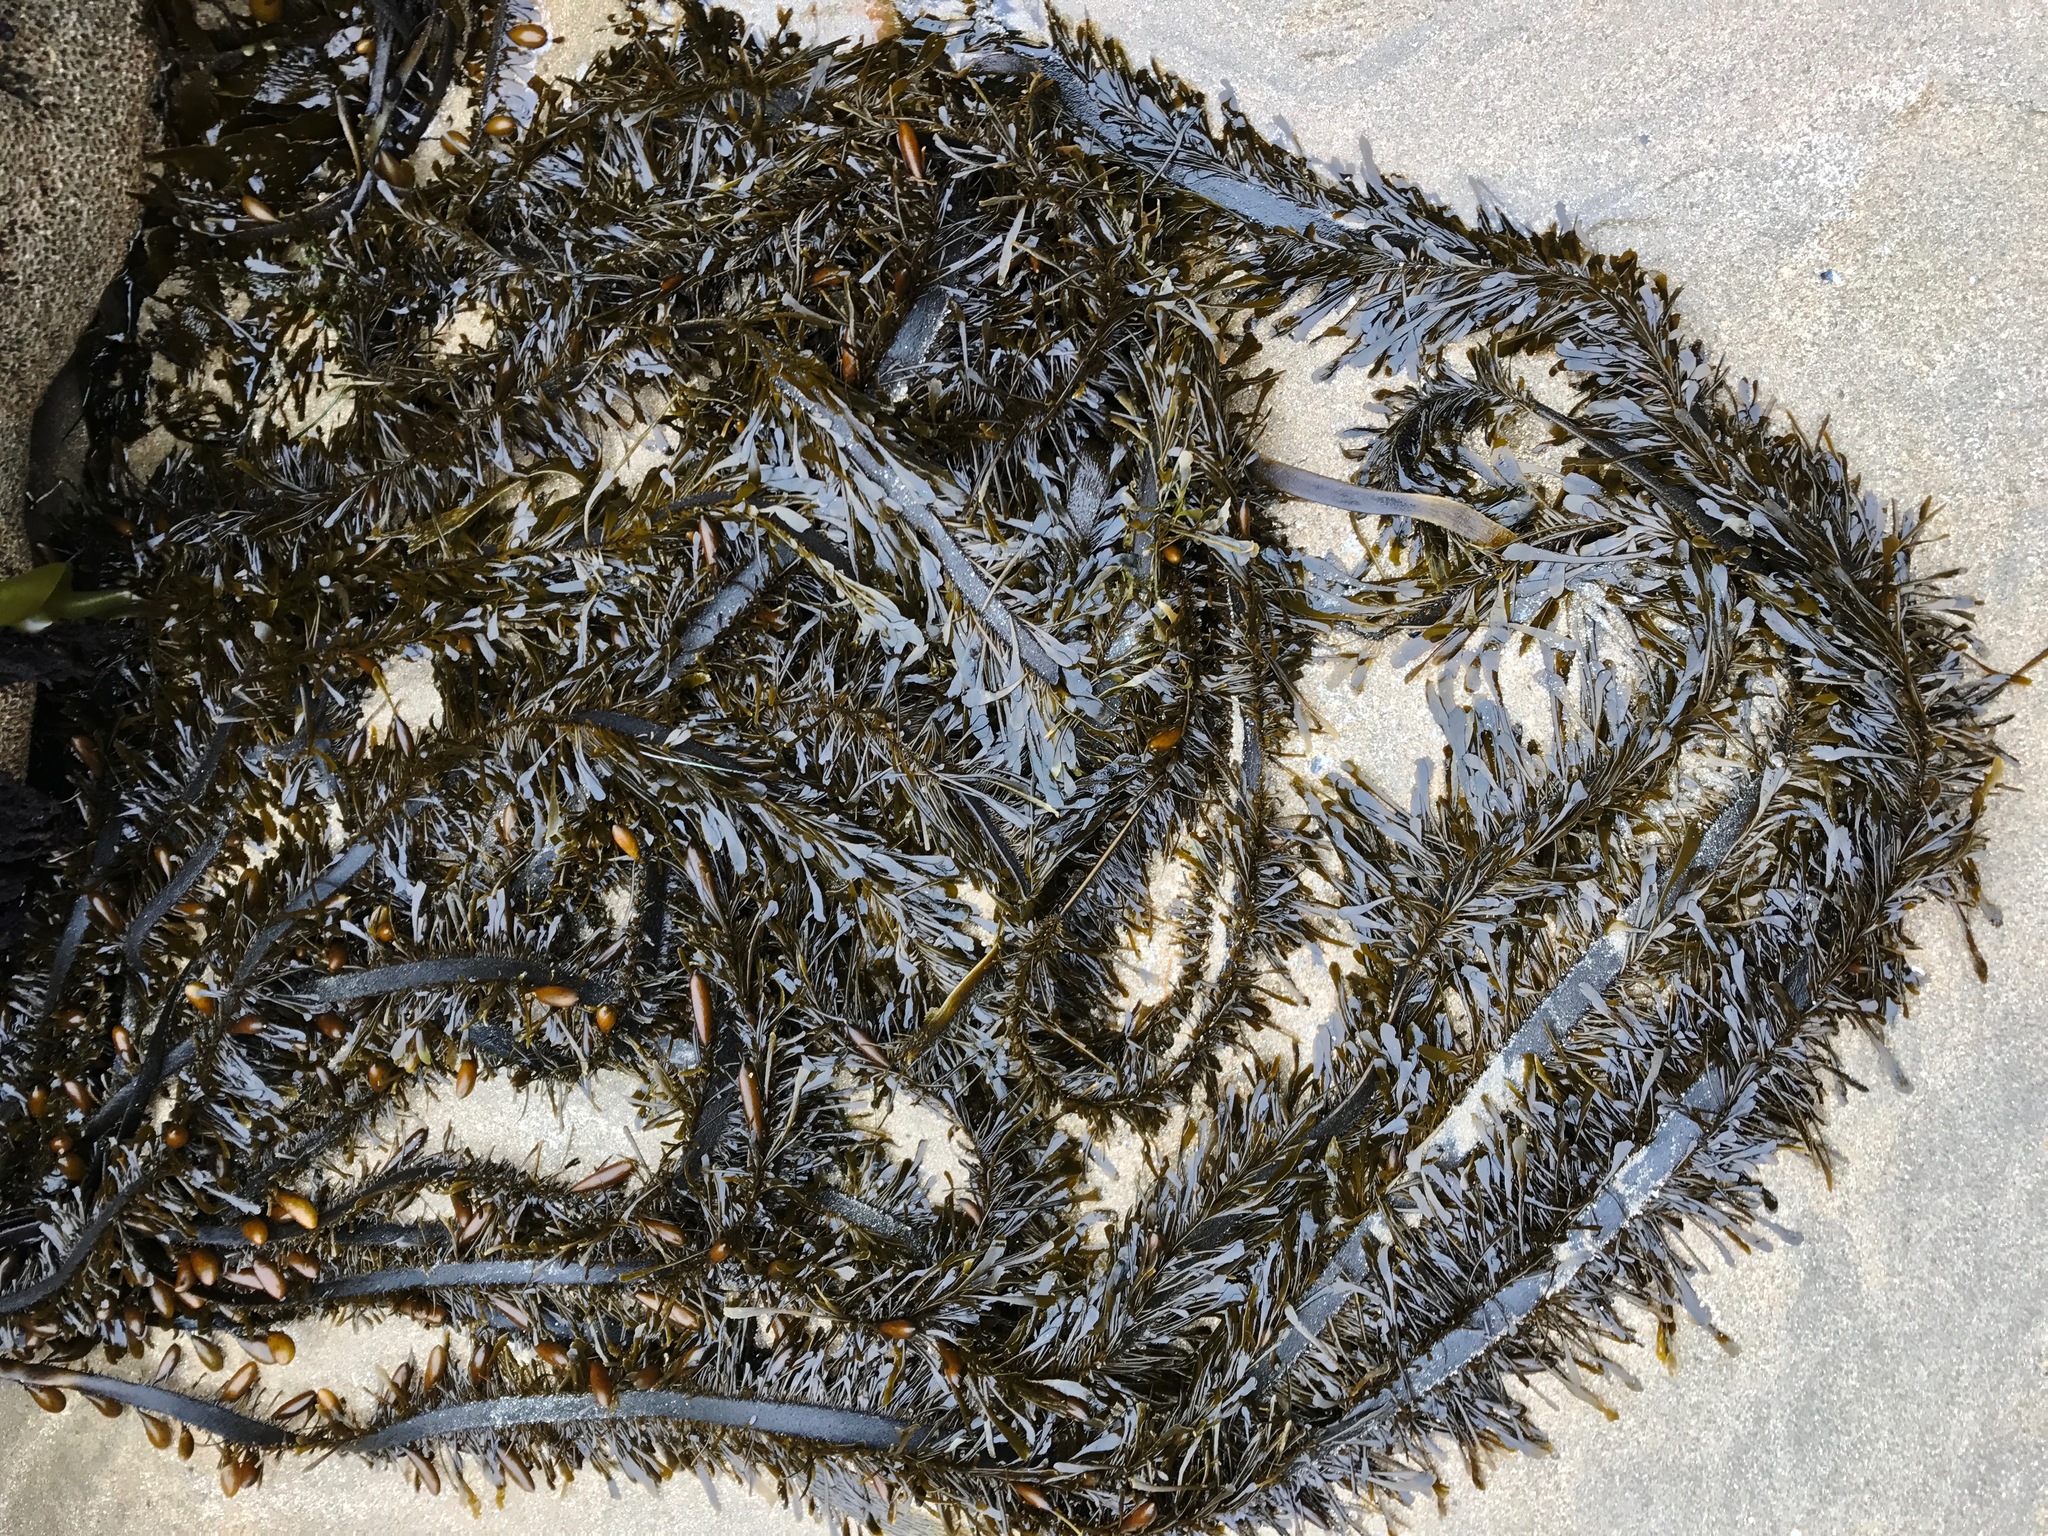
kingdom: Chromista
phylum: Ochrophyta
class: Phaeophyceae
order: Laminariales
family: Lessoniaceae
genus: Egregia
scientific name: Egregia menziesii
